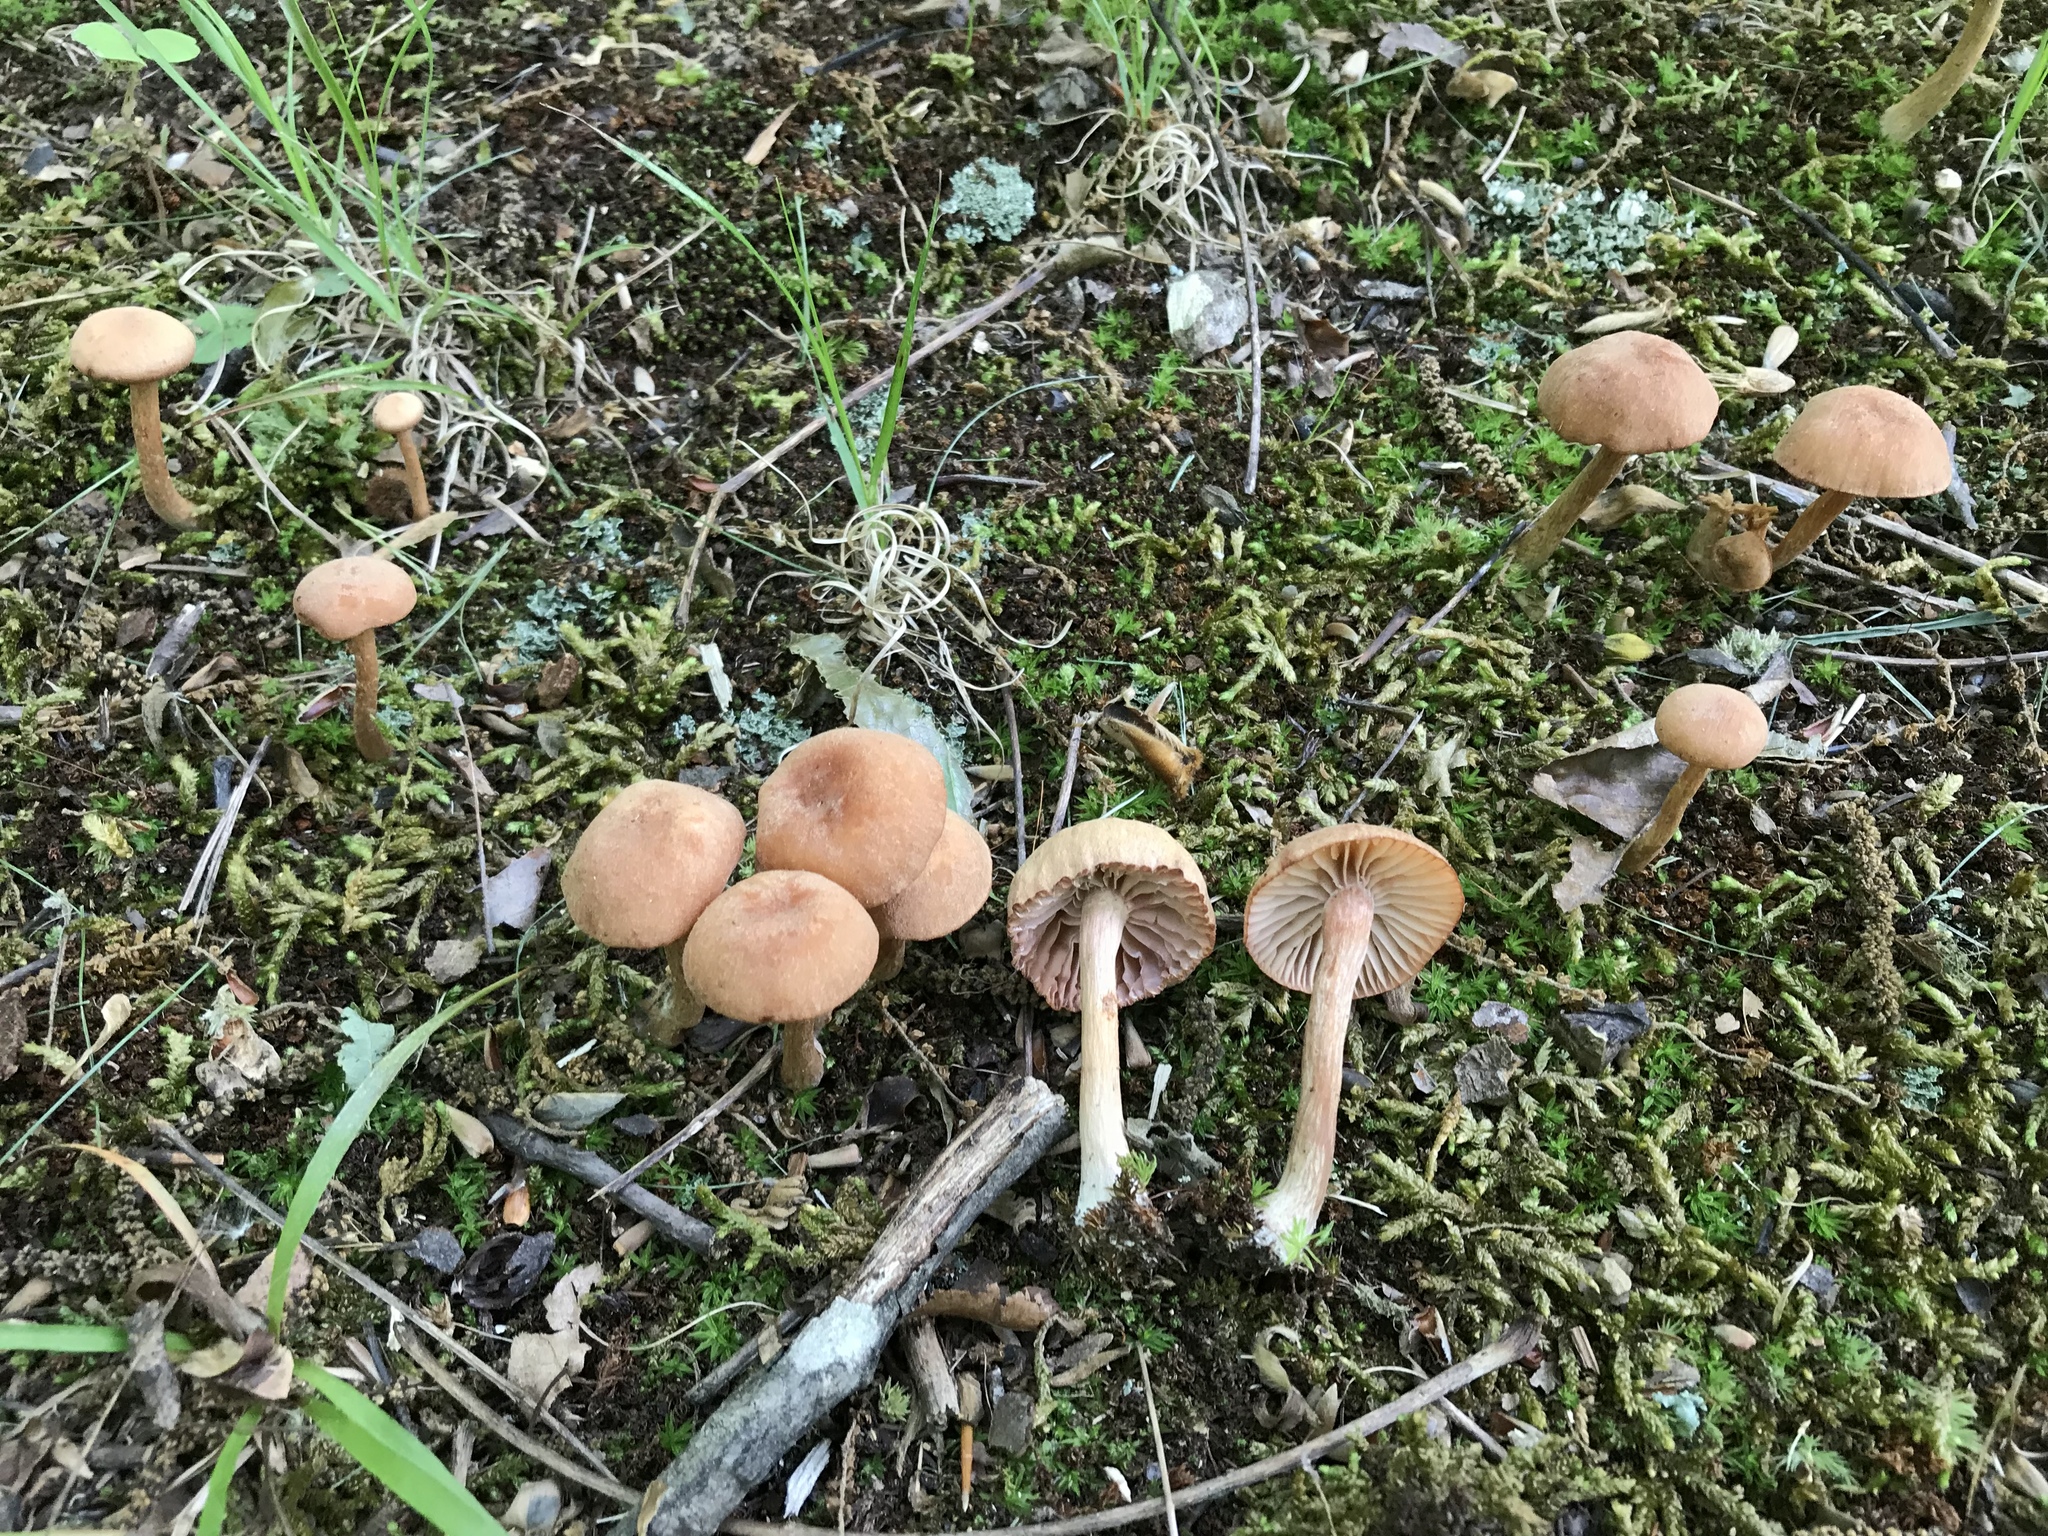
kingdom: Fungi
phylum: Basidiomycota
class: Agaricomycetes
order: Agaricales
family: Hydnangiaceae
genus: Laccaria
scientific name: Laccaria laccata
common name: Deceiver
